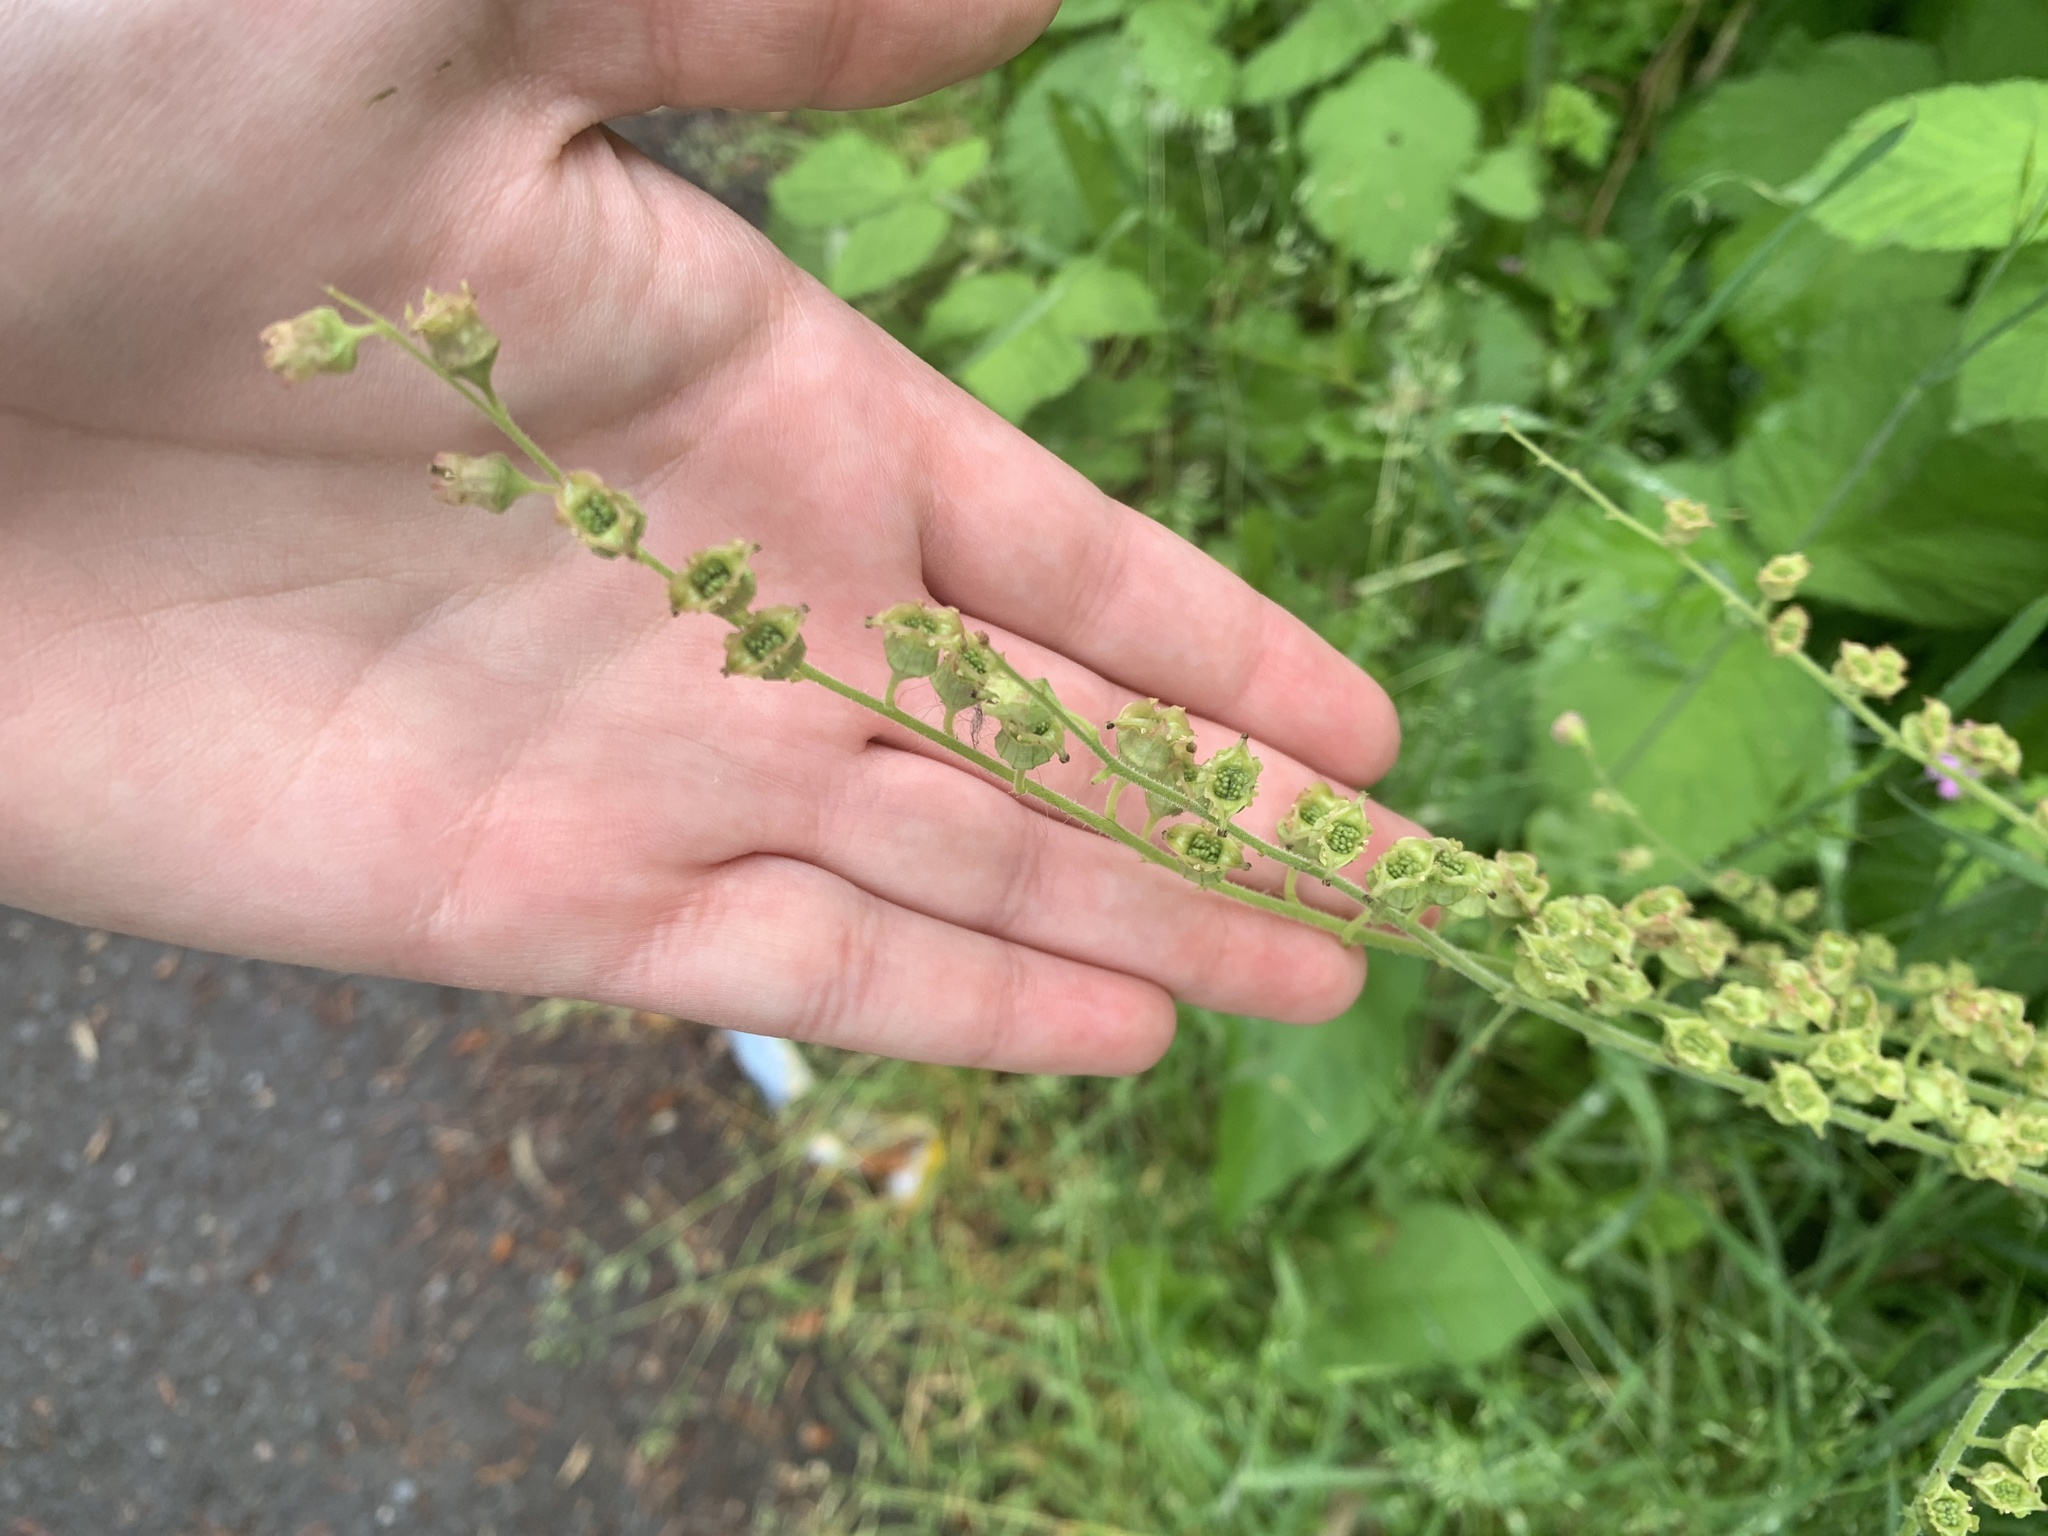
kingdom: Plantae
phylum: Tracheophyta
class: Magnoliopsida
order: Saxifragales
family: Saxifragaceae
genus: Tellima
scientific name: Tellima grandiflora
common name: Fringecups
